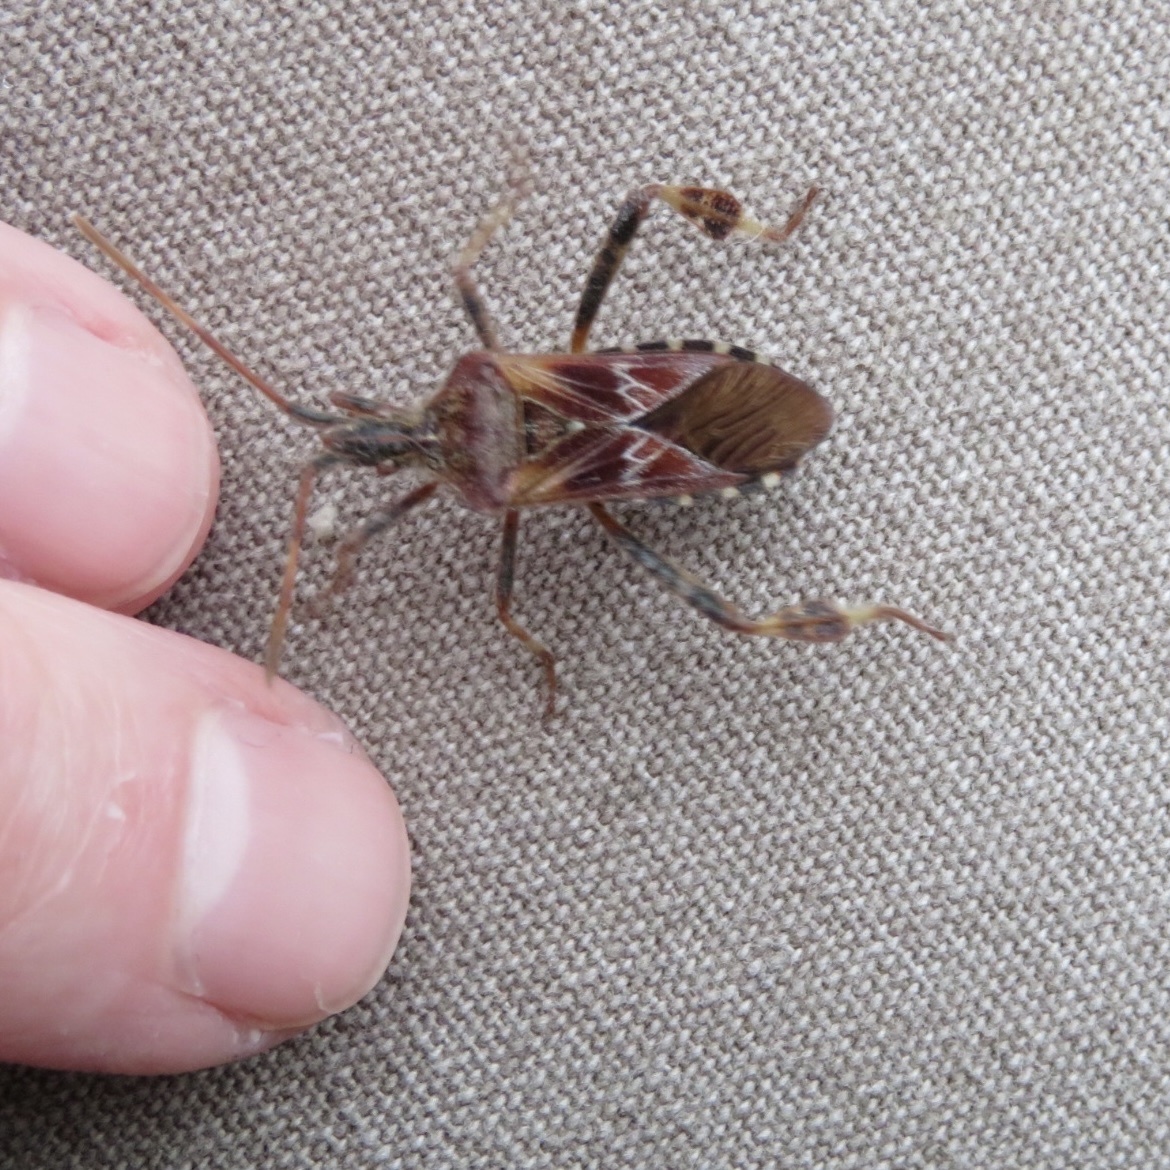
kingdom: Animalia
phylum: Arthropoda
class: Insecta
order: Hemiptera
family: Coreidae
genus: Leptoglossus
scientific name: Leptoglossus occidentalis
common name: Western conifer-seed bug
